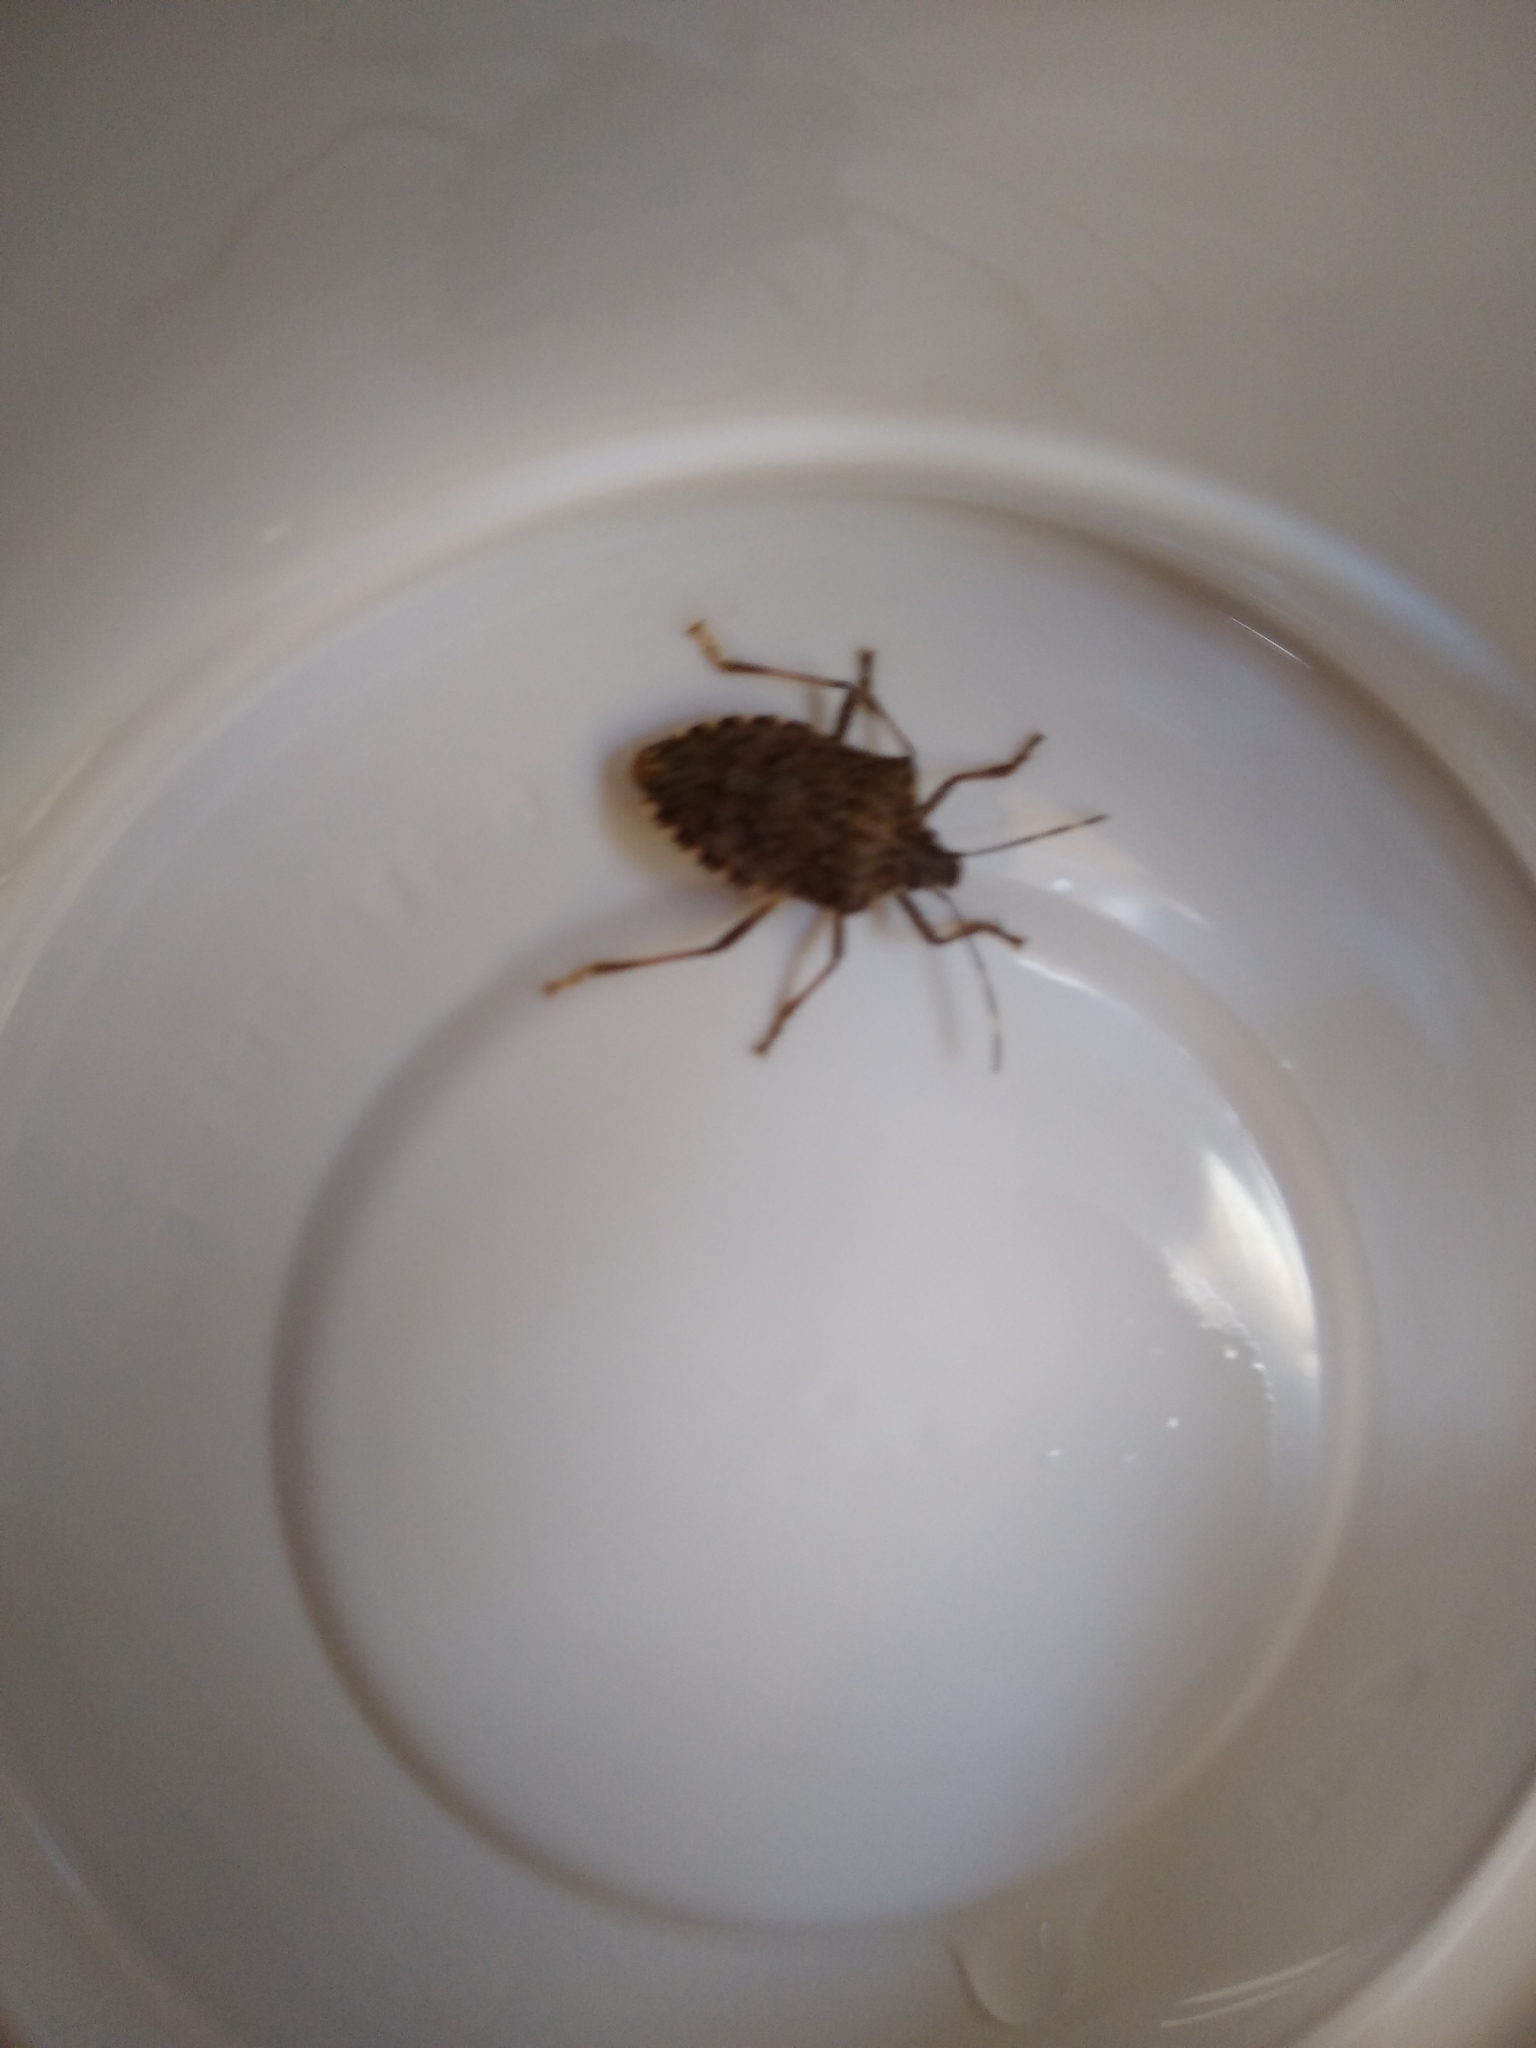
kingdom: Animalia
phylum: Arthropoda
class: Insecta
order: Hemiptera
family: Pentatomidae
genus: Halyomorpha
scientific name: Halyomorpha halys
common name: Brown marmorated stink bug
